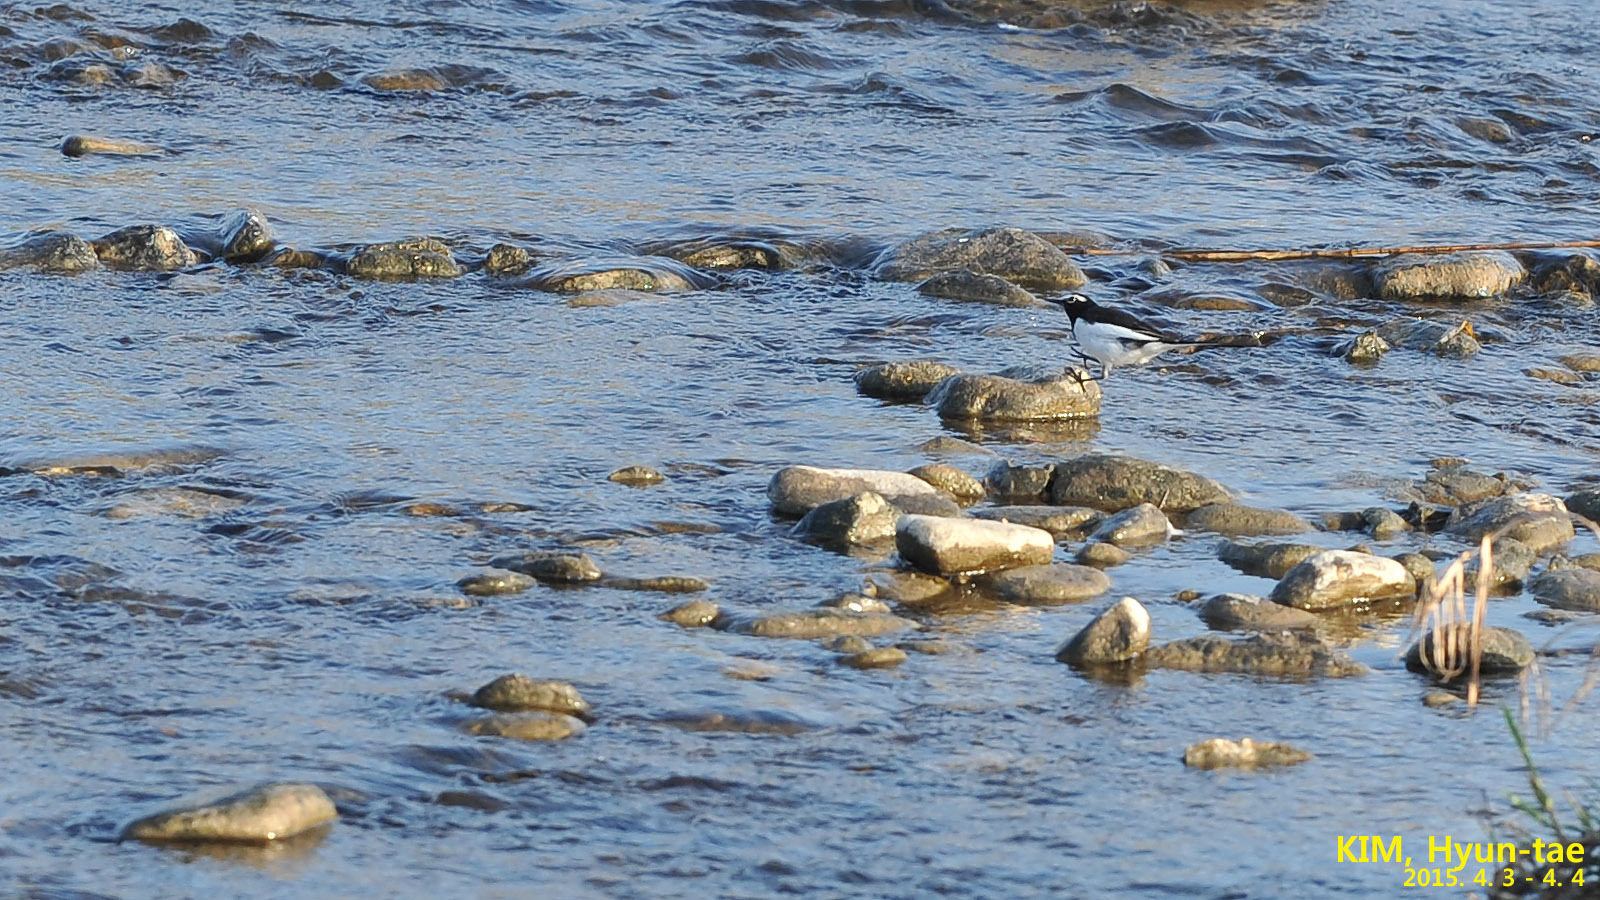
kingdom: Animalia
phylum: Chordata
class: Aves
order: Passeriformes
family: Motacillidae
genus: Motacilla
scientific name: Motacilla grandis
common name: Japanese wagtail
